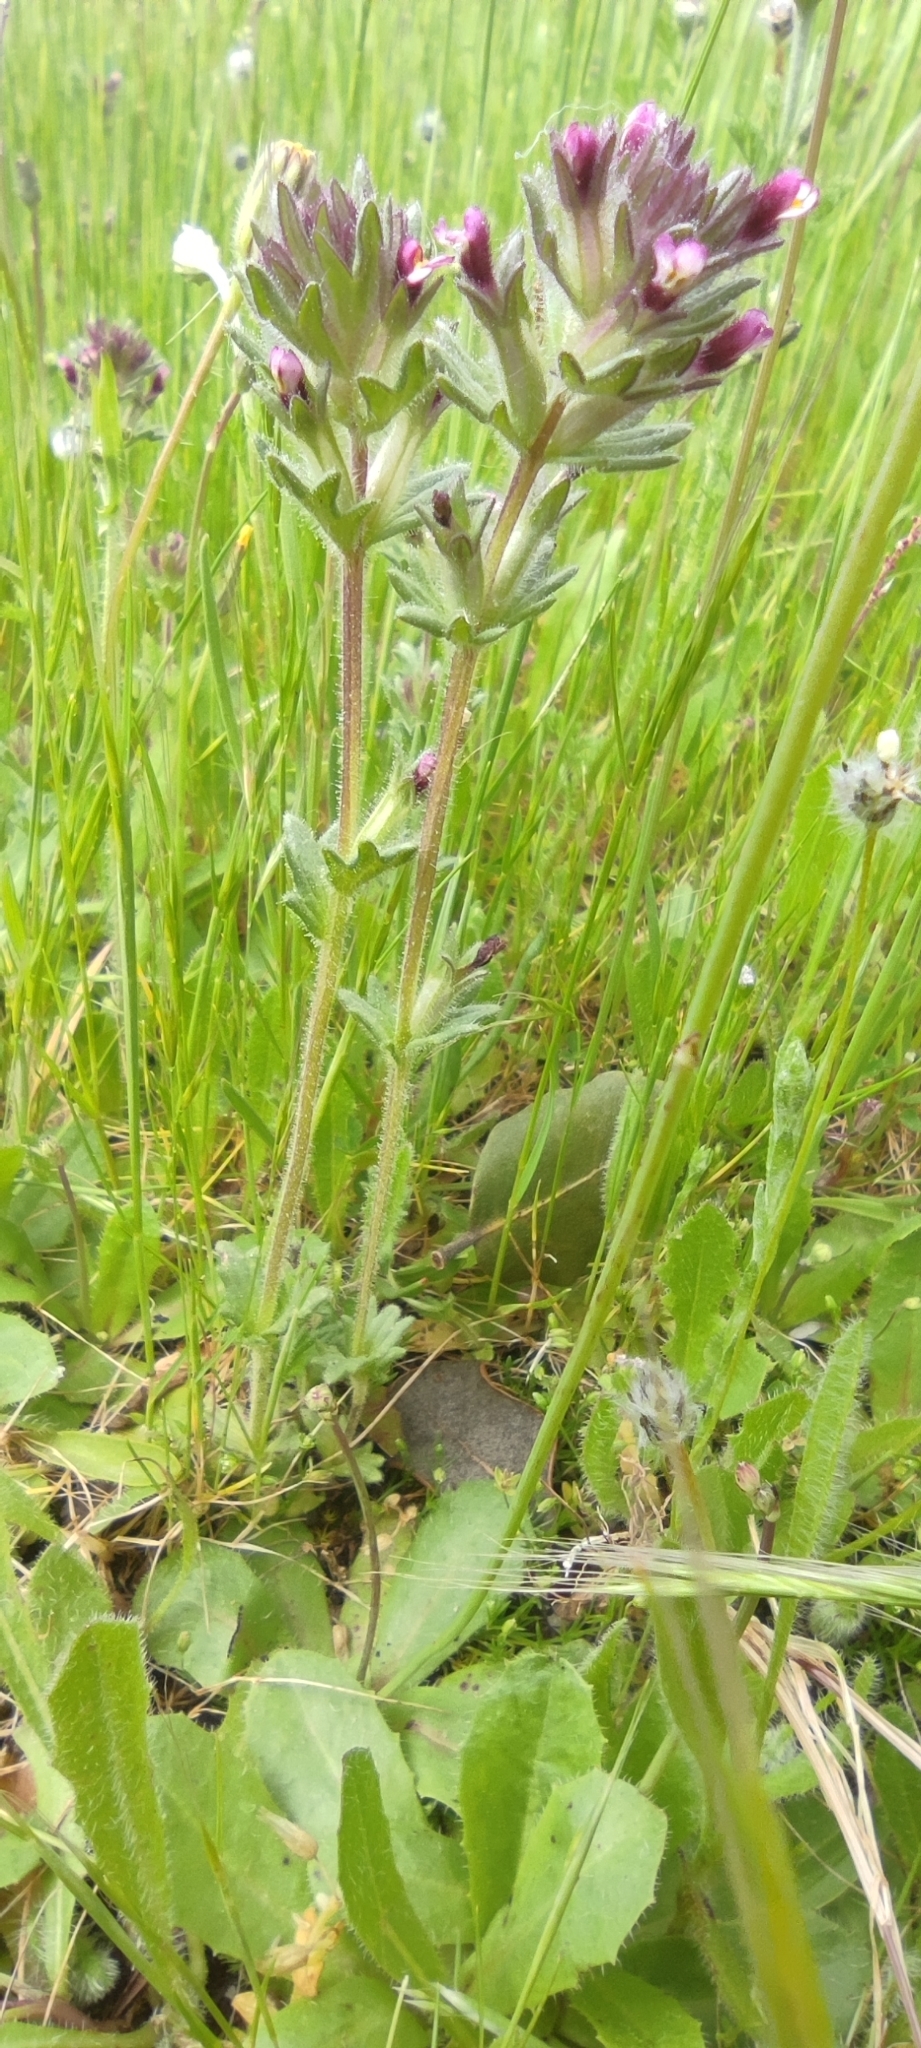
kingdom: Plantae
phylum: Tracheophyta
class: Magnoliopsida
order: Lamiales
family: Orobanchaceae
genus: Parentucellia
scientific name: Parentucellia latifolia
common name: Broadleaf glandweed
